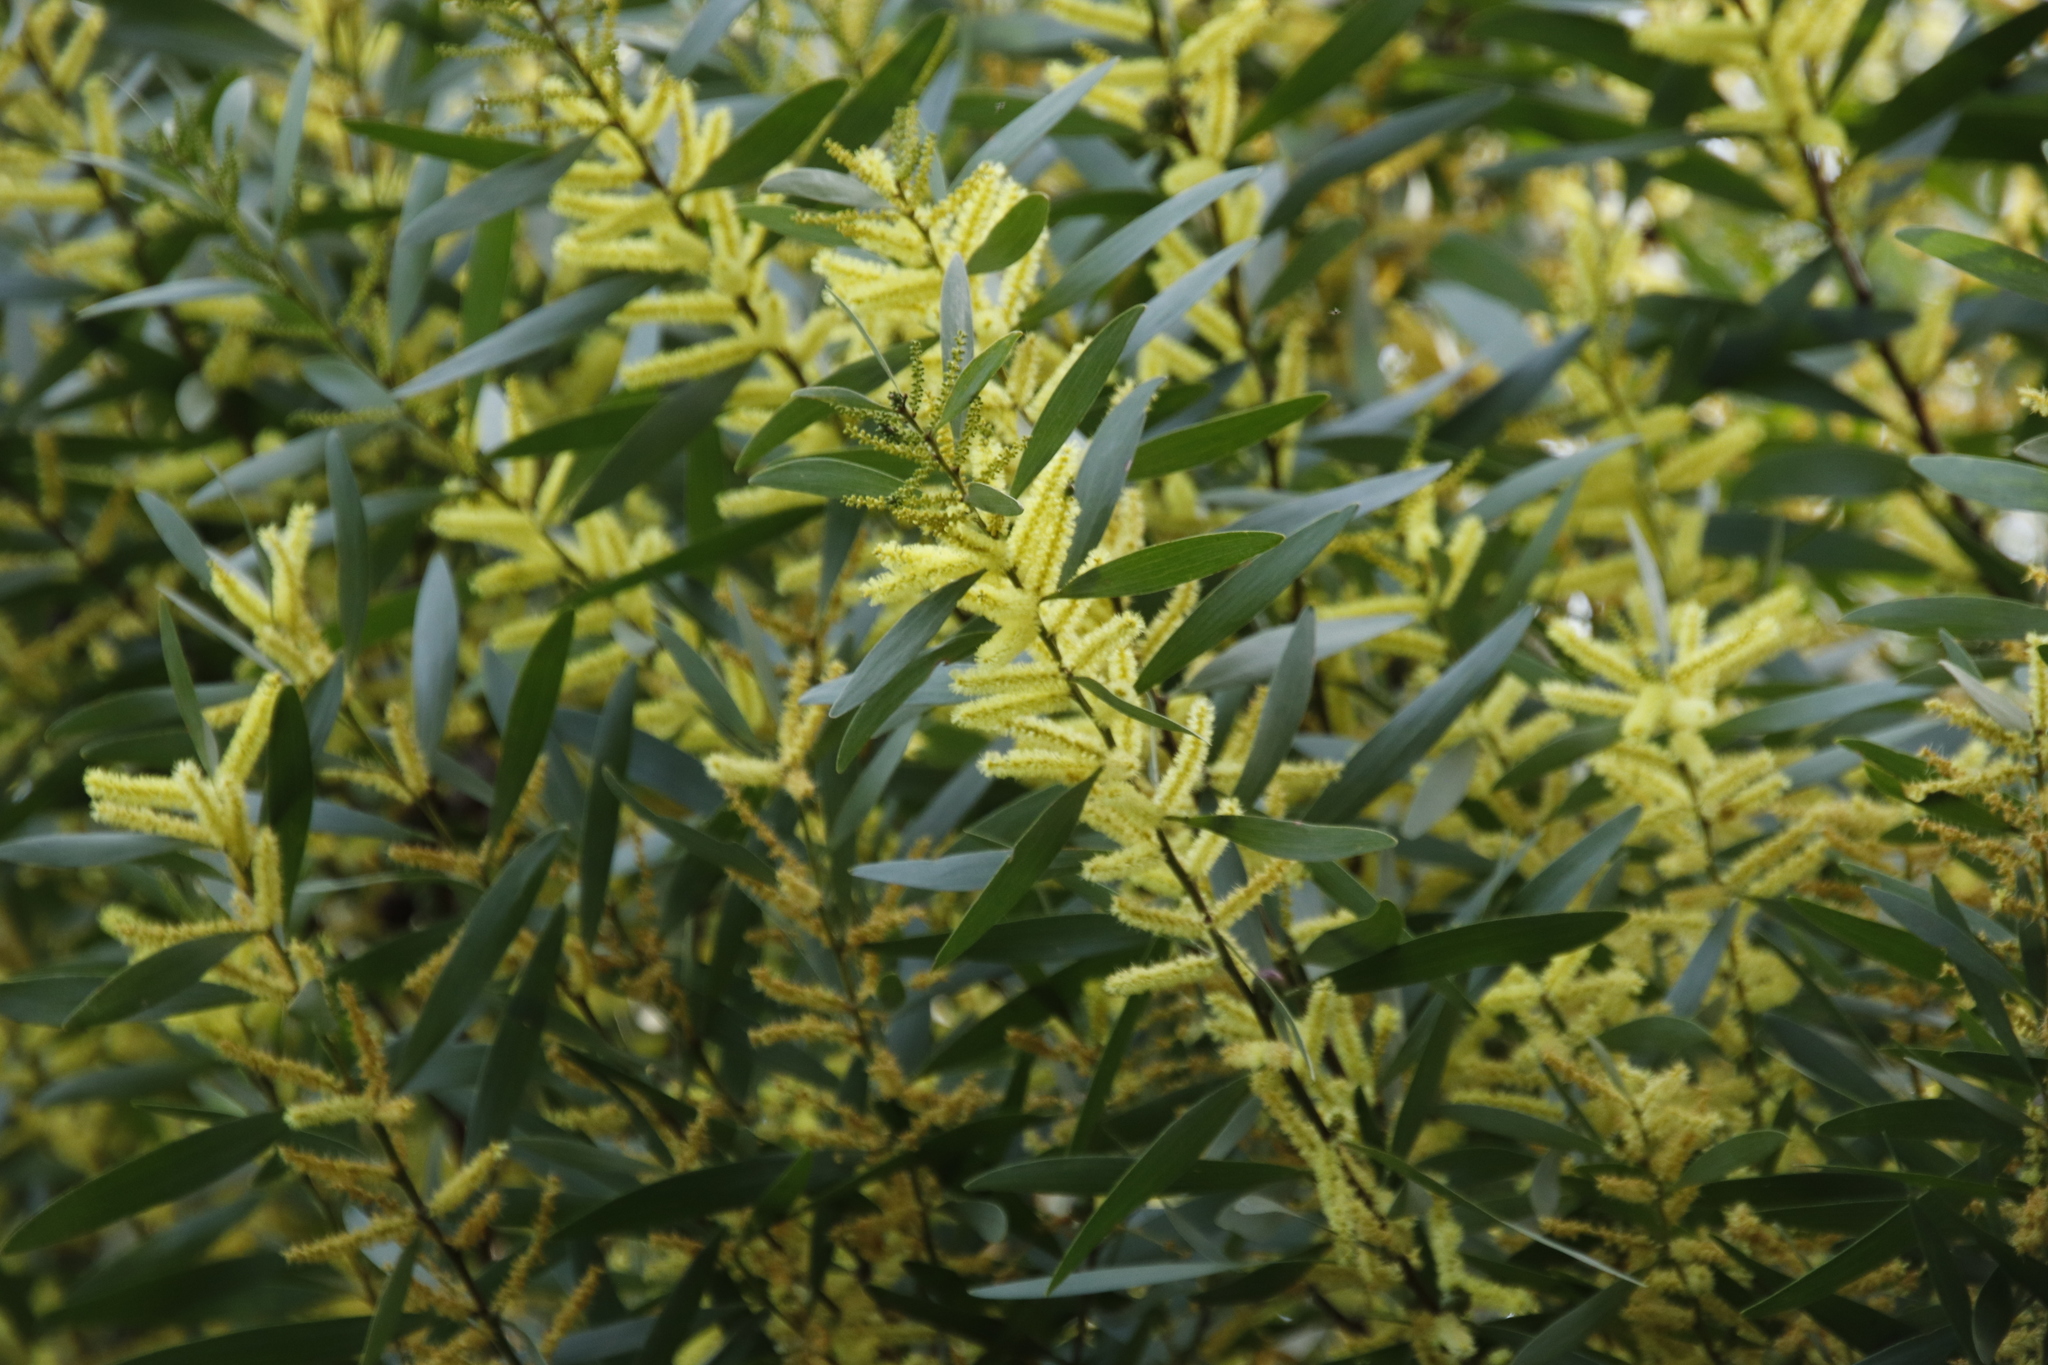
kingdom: Plantae
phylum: Tracheophyta
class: Magnoliopsida
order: Fabales
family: Fabaceae
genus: Acacia
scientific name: Acacia longifolia
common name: Sydney golden wattle
